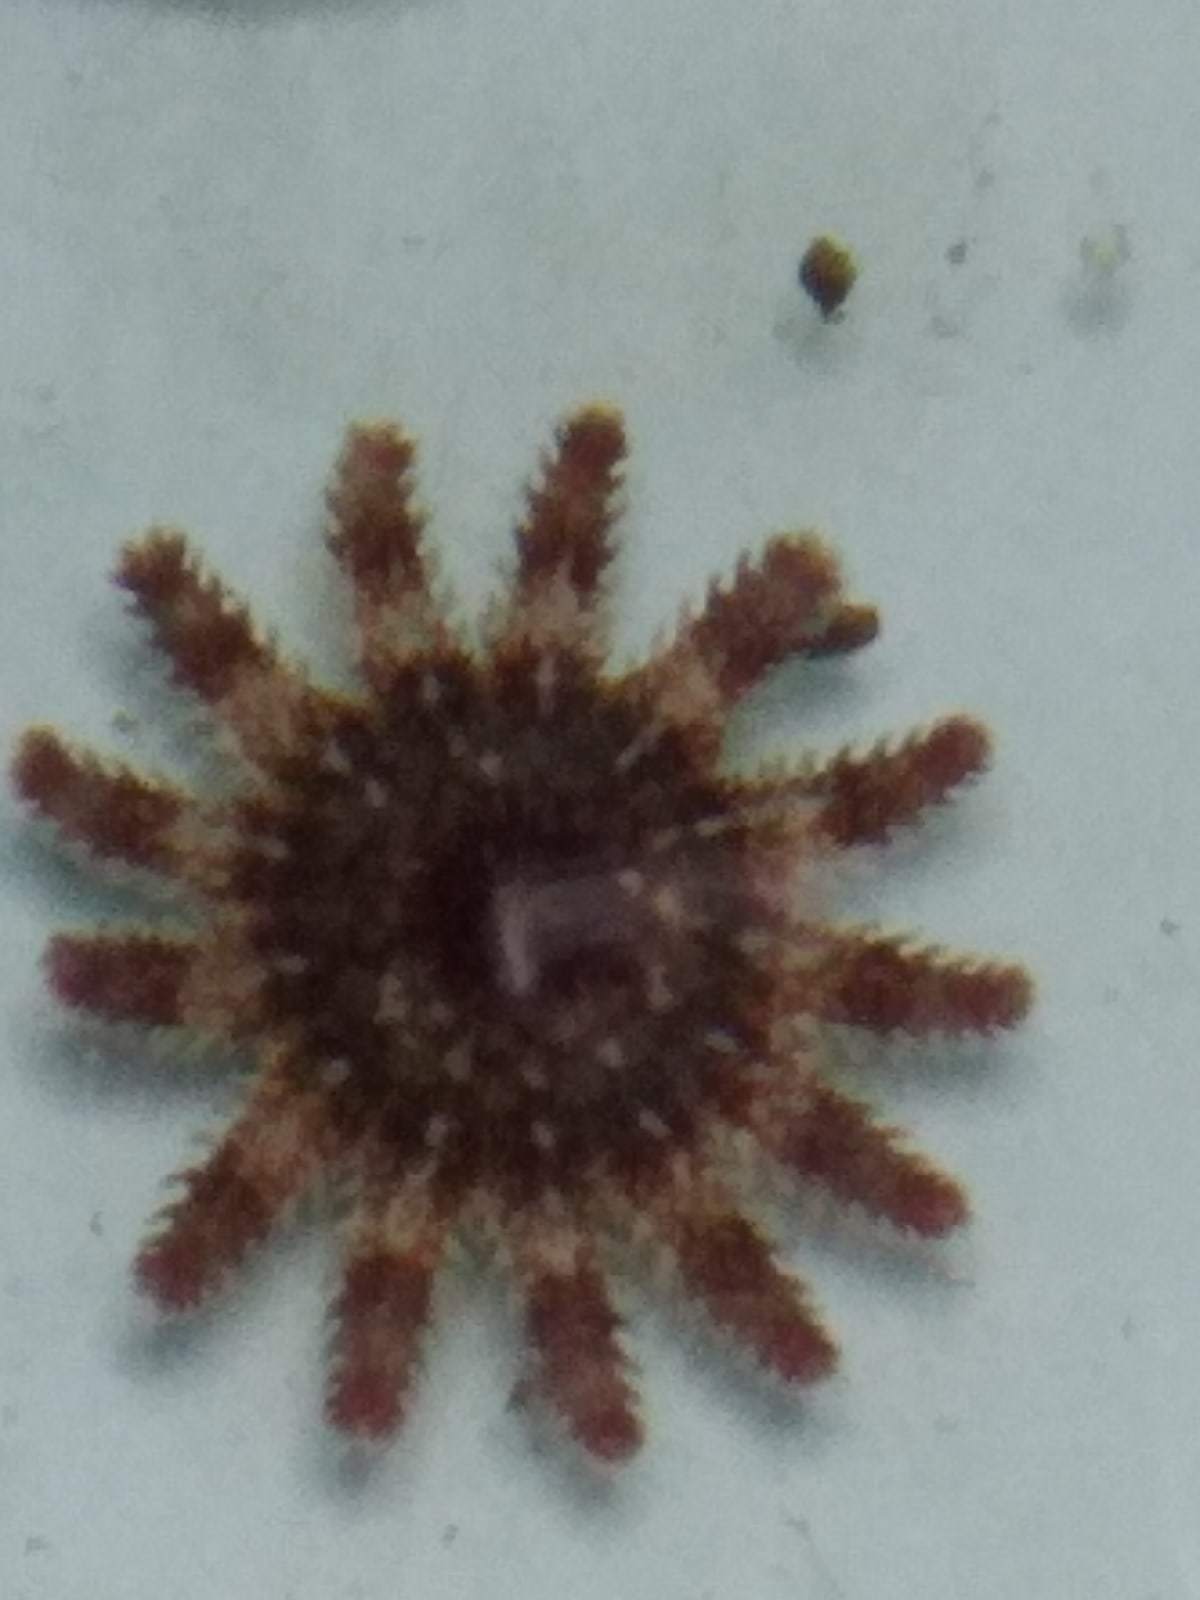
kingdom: Animalia
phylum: Echinodermata
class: Asteroidea
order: Valvatida
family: Solasteridae
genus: Crossaster
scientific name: Crossaster papposus
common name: Common sun star
